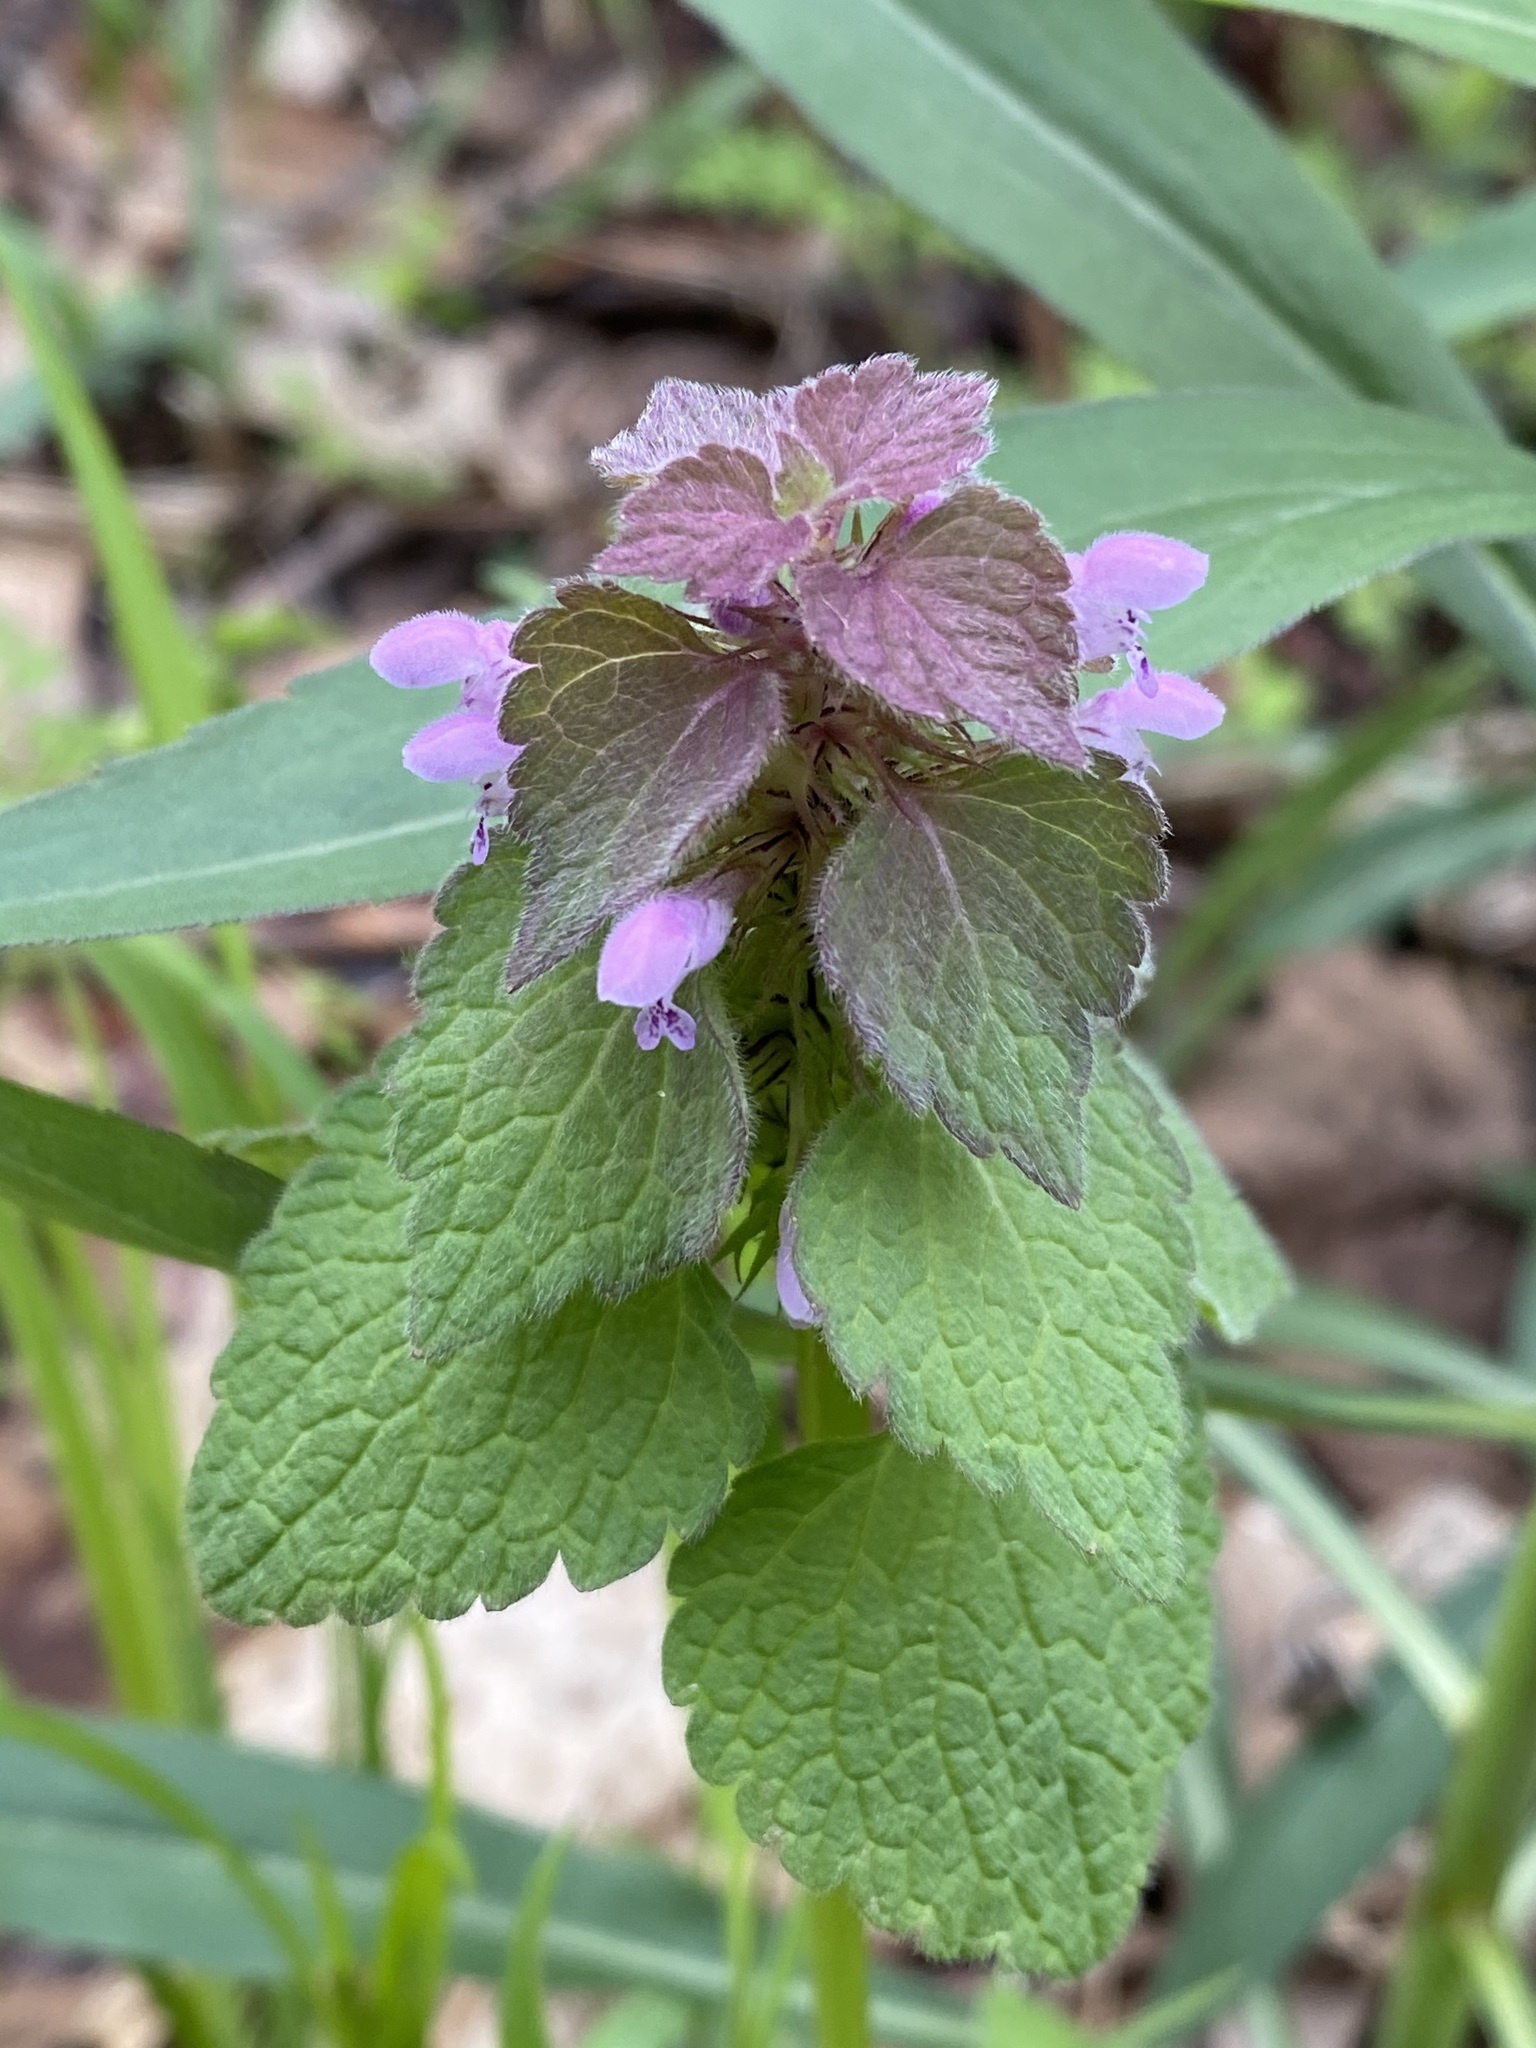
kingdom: Plantae
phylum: Tracheophyta
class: Magnoliopsida
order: Lamiales
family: Lamiaceae
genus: Lamium
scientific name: Lamium purpureum
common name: Red dead-nettle
